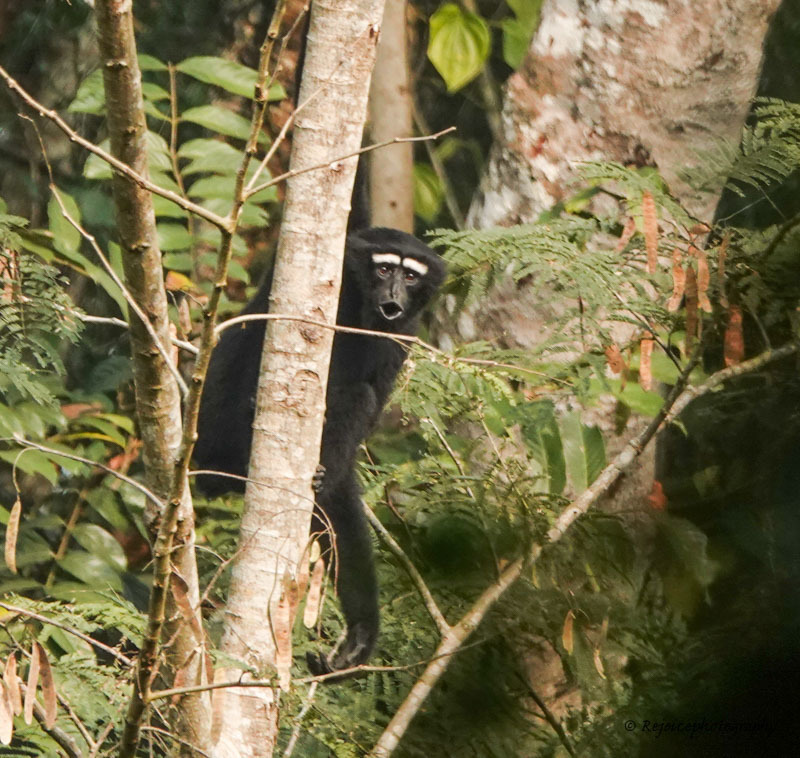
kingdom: Animalia
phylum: Chordata
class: Mammalia
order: Primates
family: Hylobatidae
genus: Hoolock
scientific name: Hoolock hoolock
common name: Western hoolock gibbon
